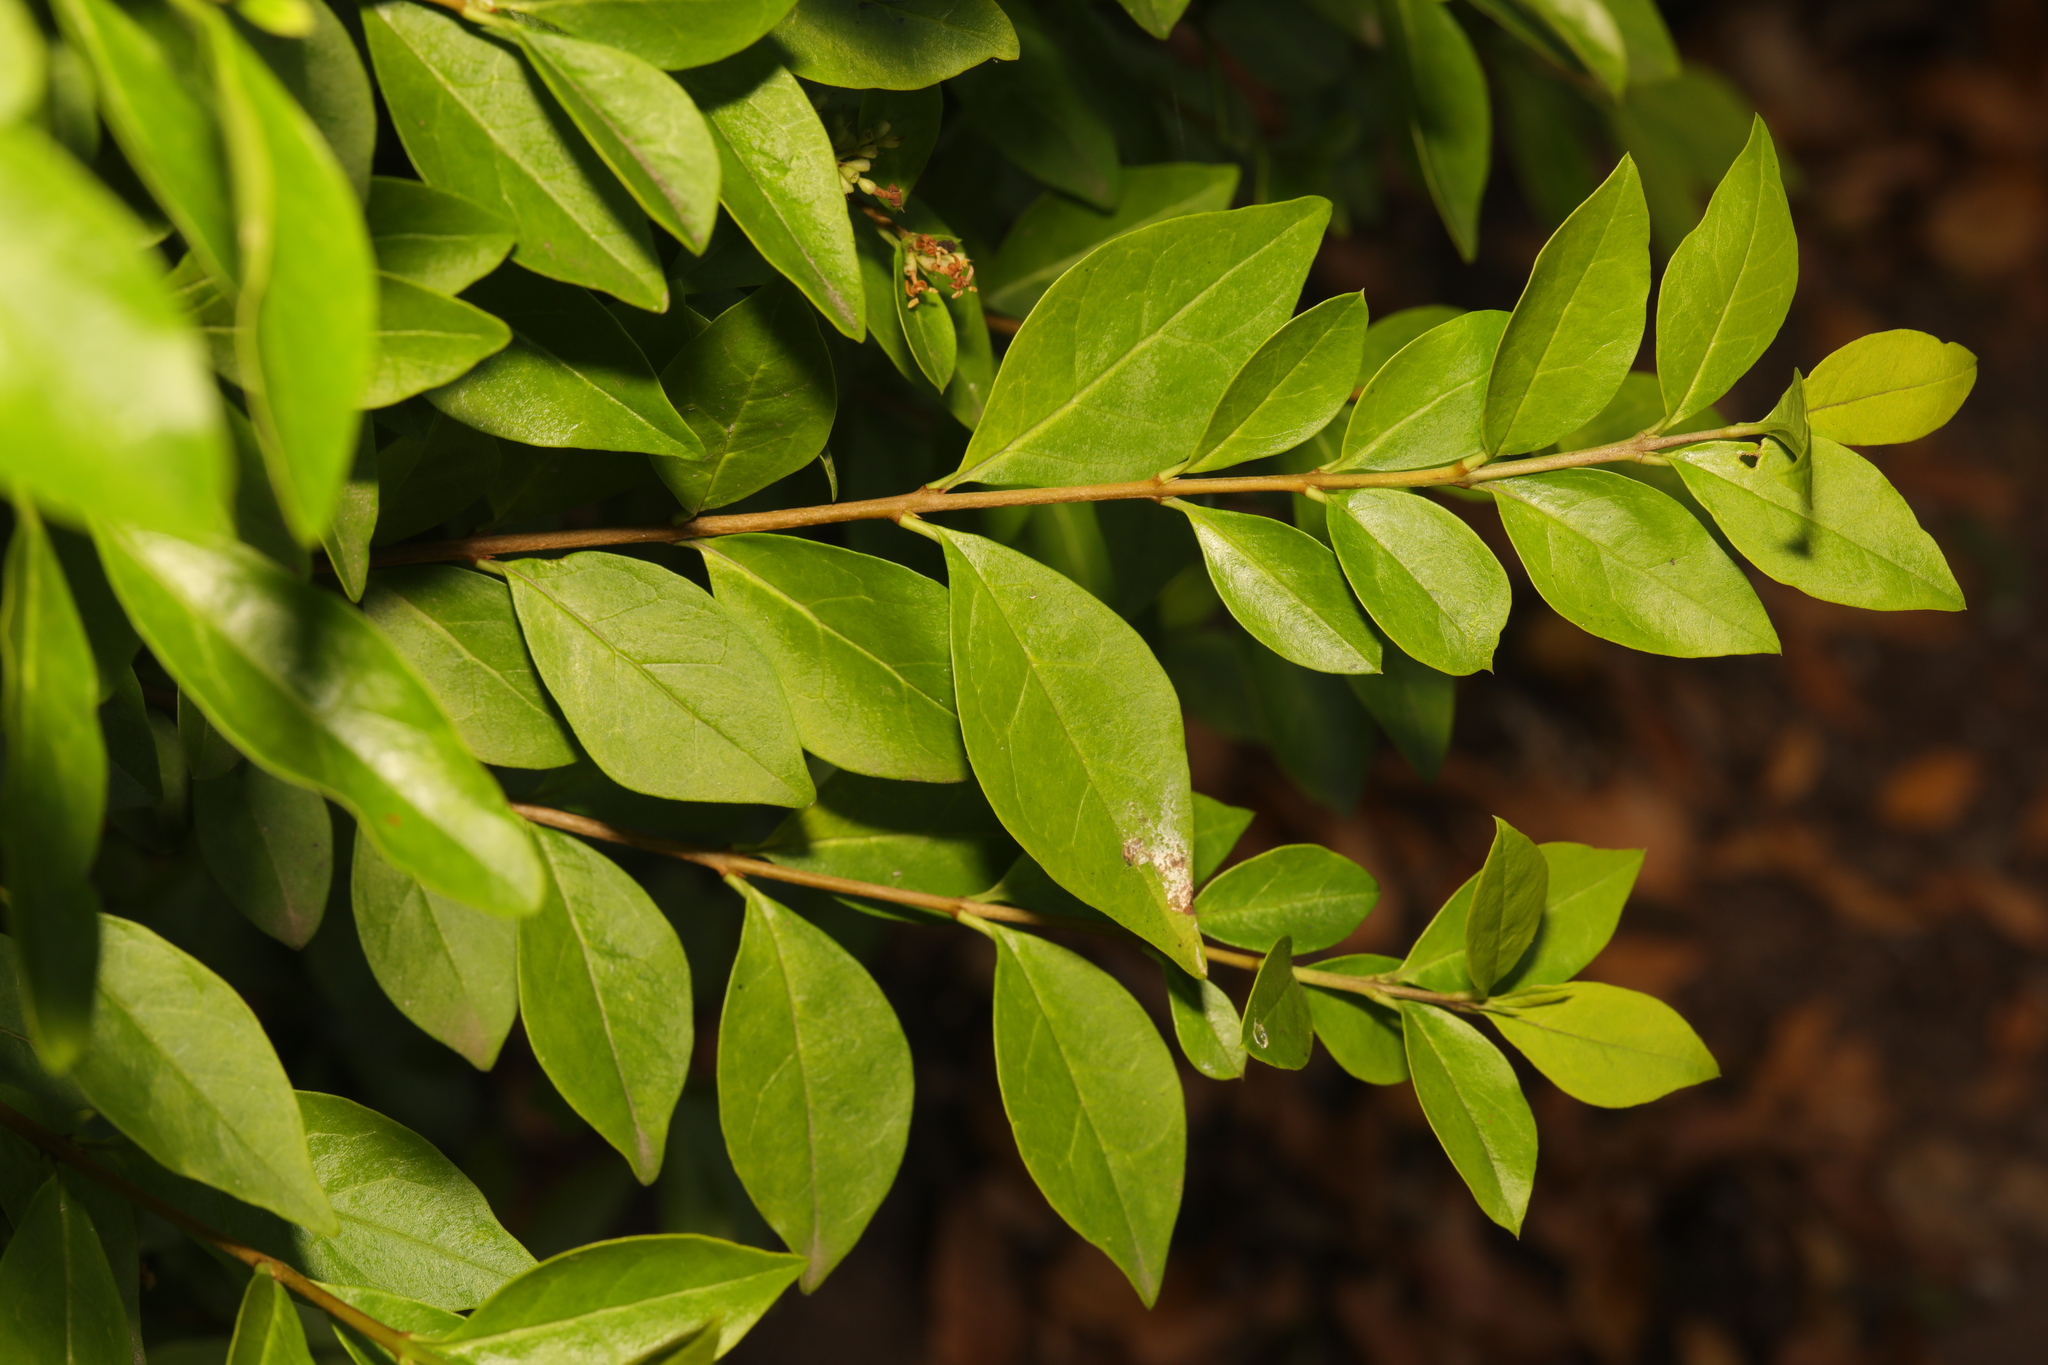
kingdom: Plantae
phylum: Tracheophyta
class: Magnoliopsida
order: Lamiales
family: Oleaceae
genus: Ligustrum
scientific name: Ligustrum ovalifolium
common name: California privet
